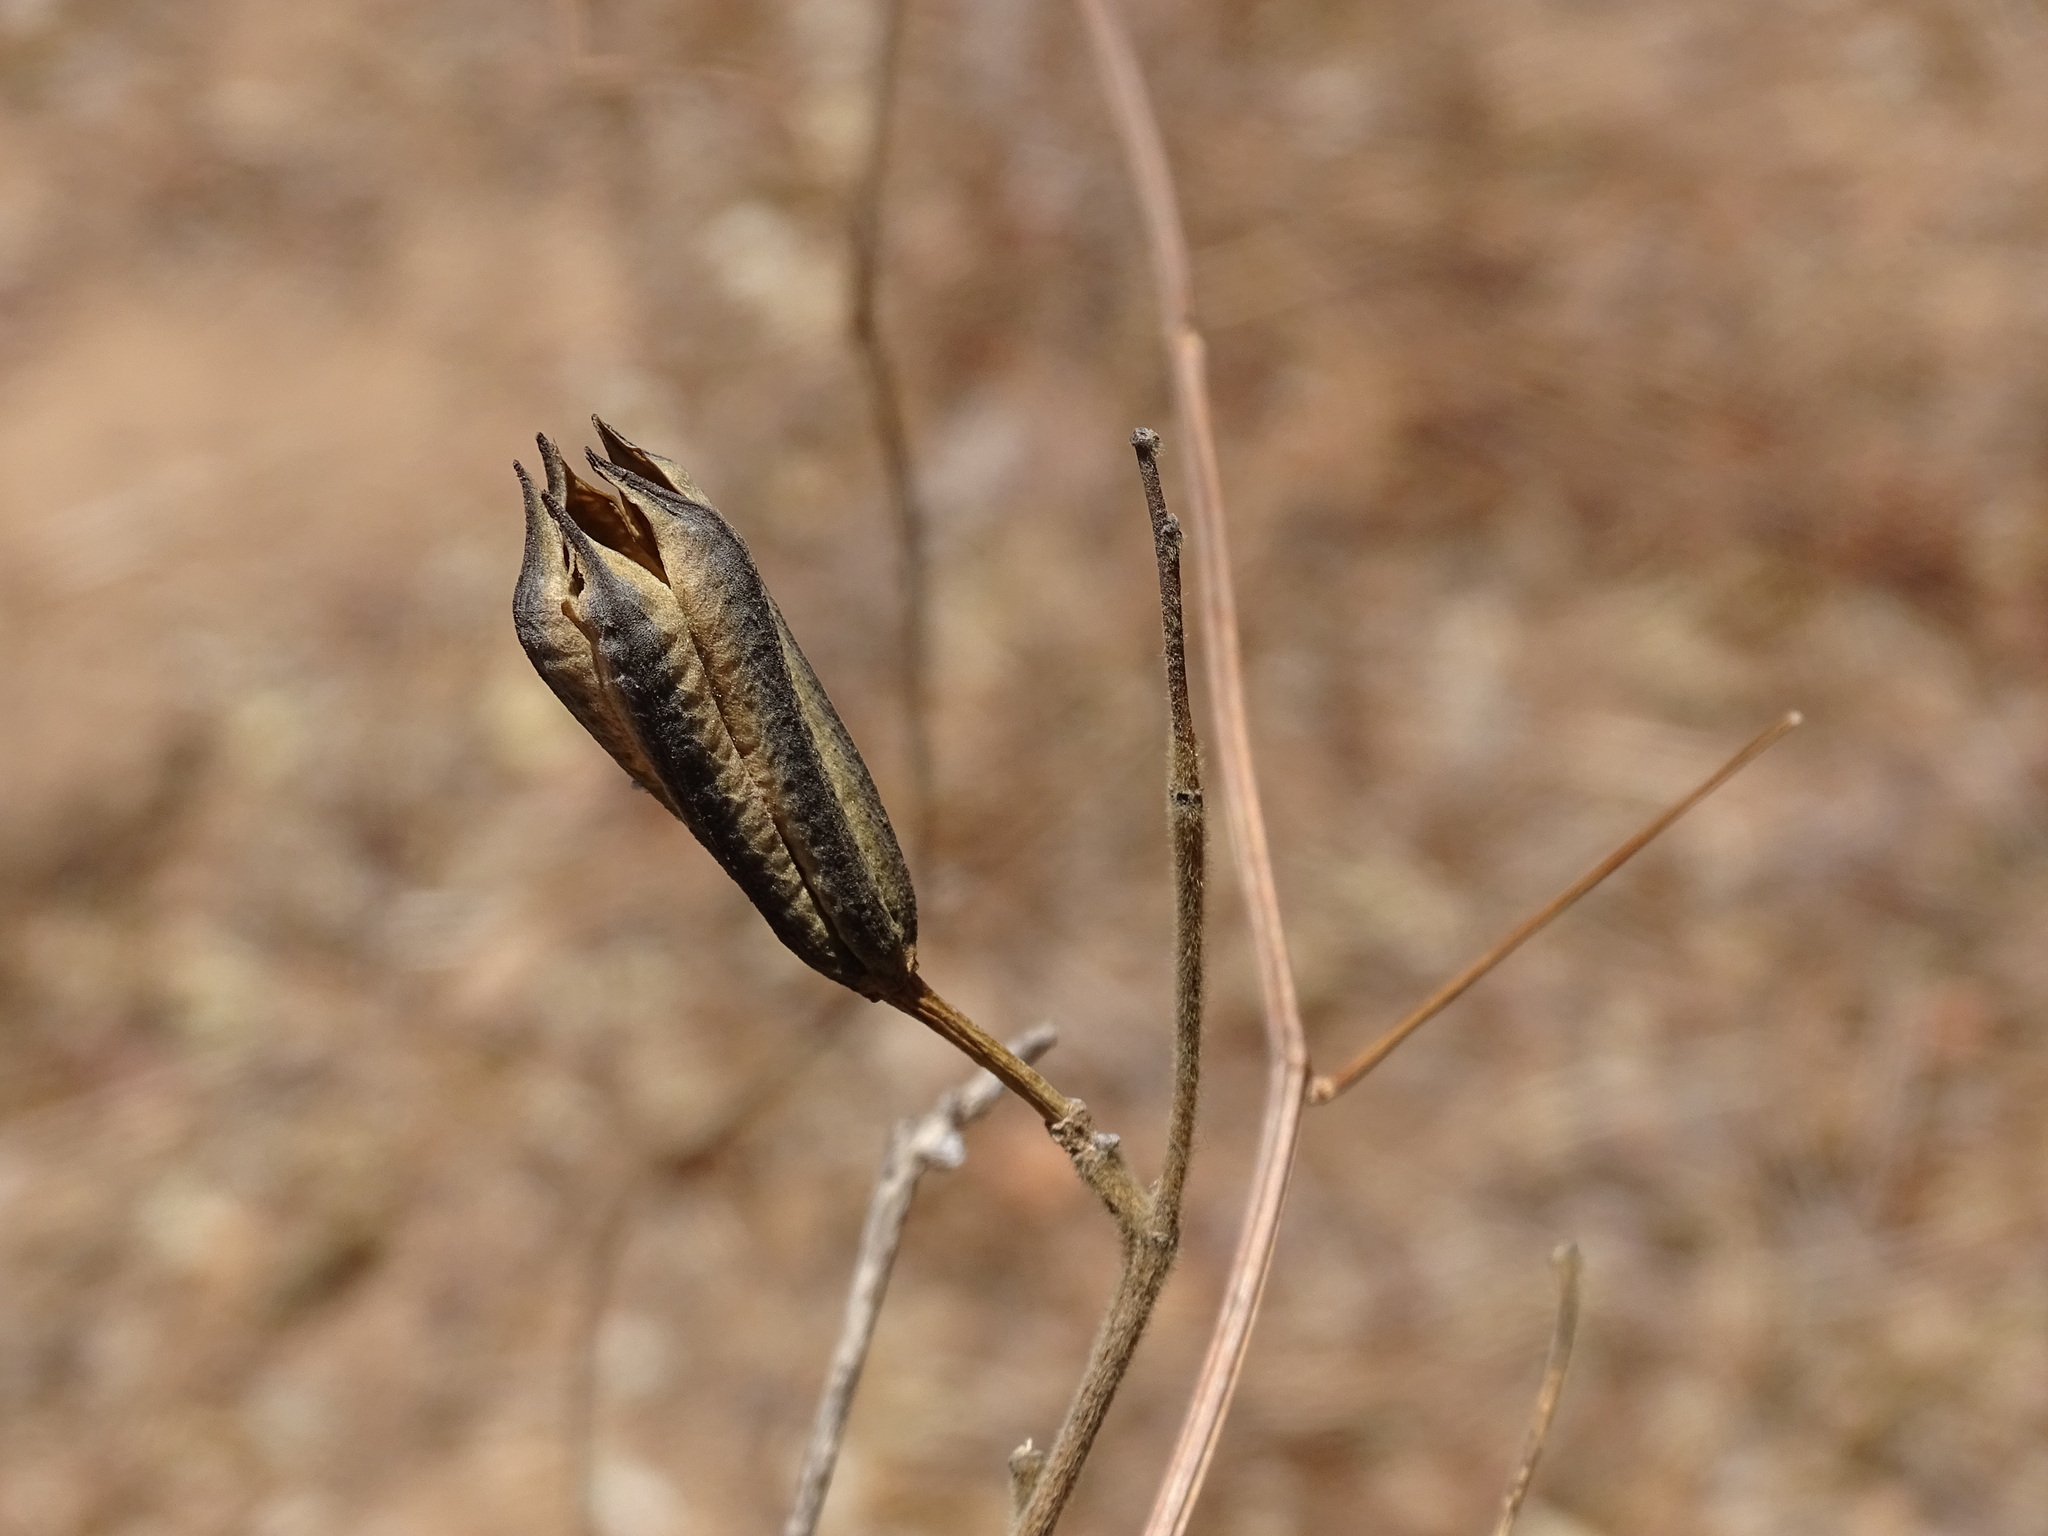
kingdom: Plantae
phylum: Tracheophyta
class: Magnoliopsida
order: Malvales
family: Malvaceae
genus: Helicteres
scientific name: Helicteres vegae
